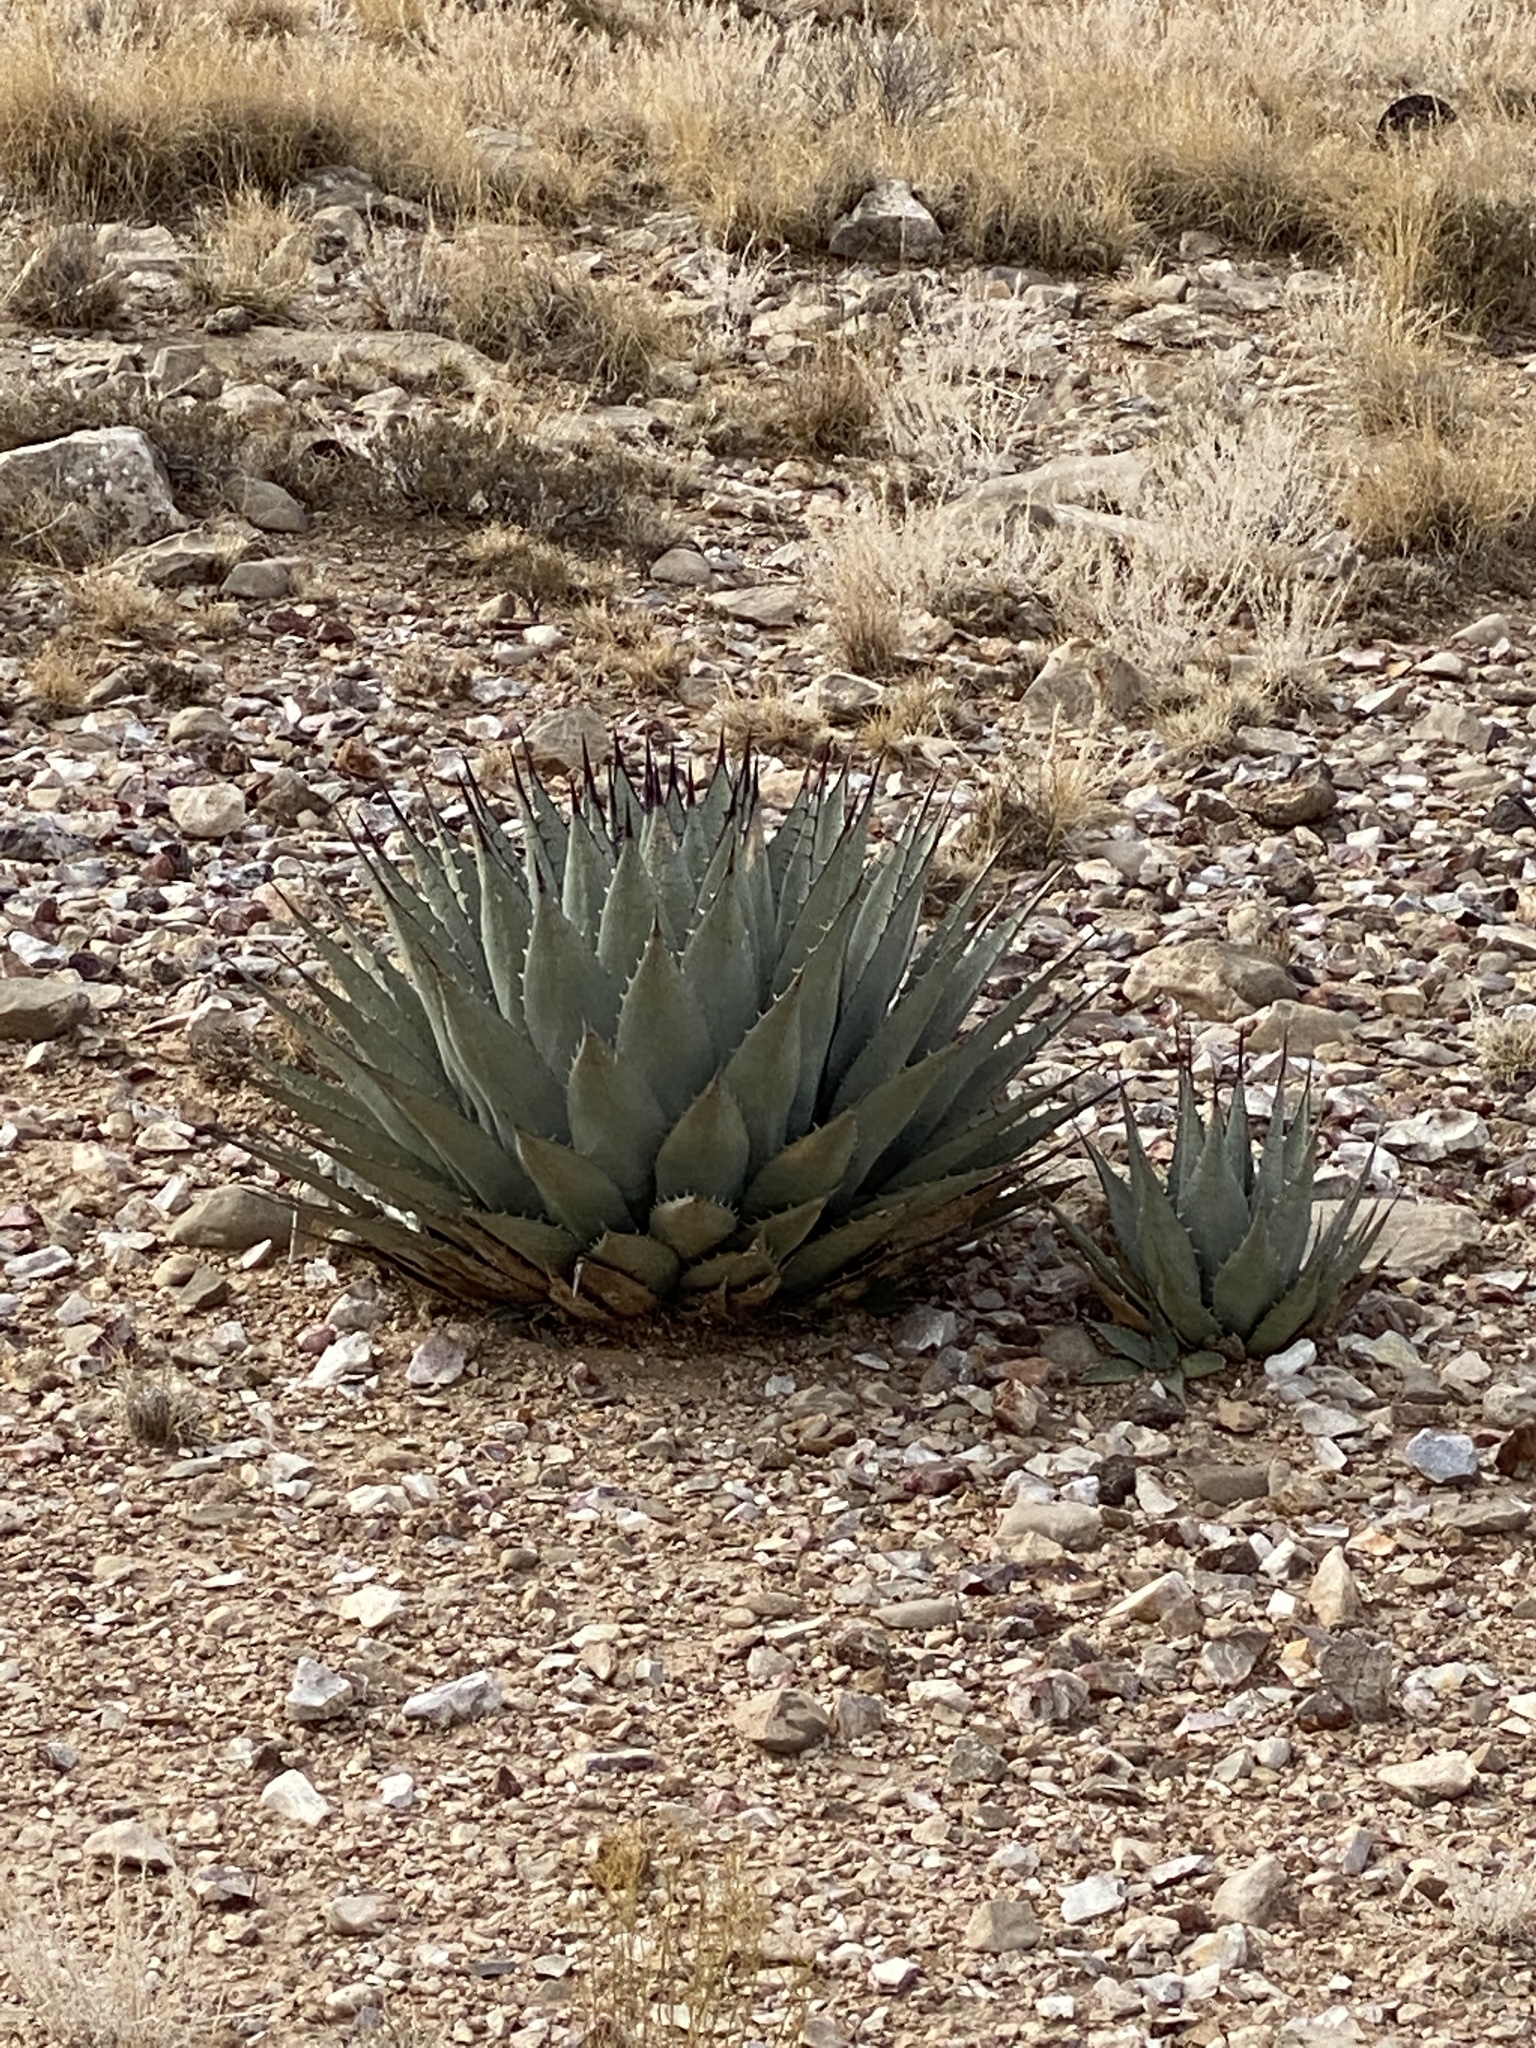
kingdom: Plantae
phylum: Tracheophyta
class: Liliopsida
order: Asparagales
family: Asparagaceae
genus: Agave
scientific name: Agave parryi
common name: Parry's agave
